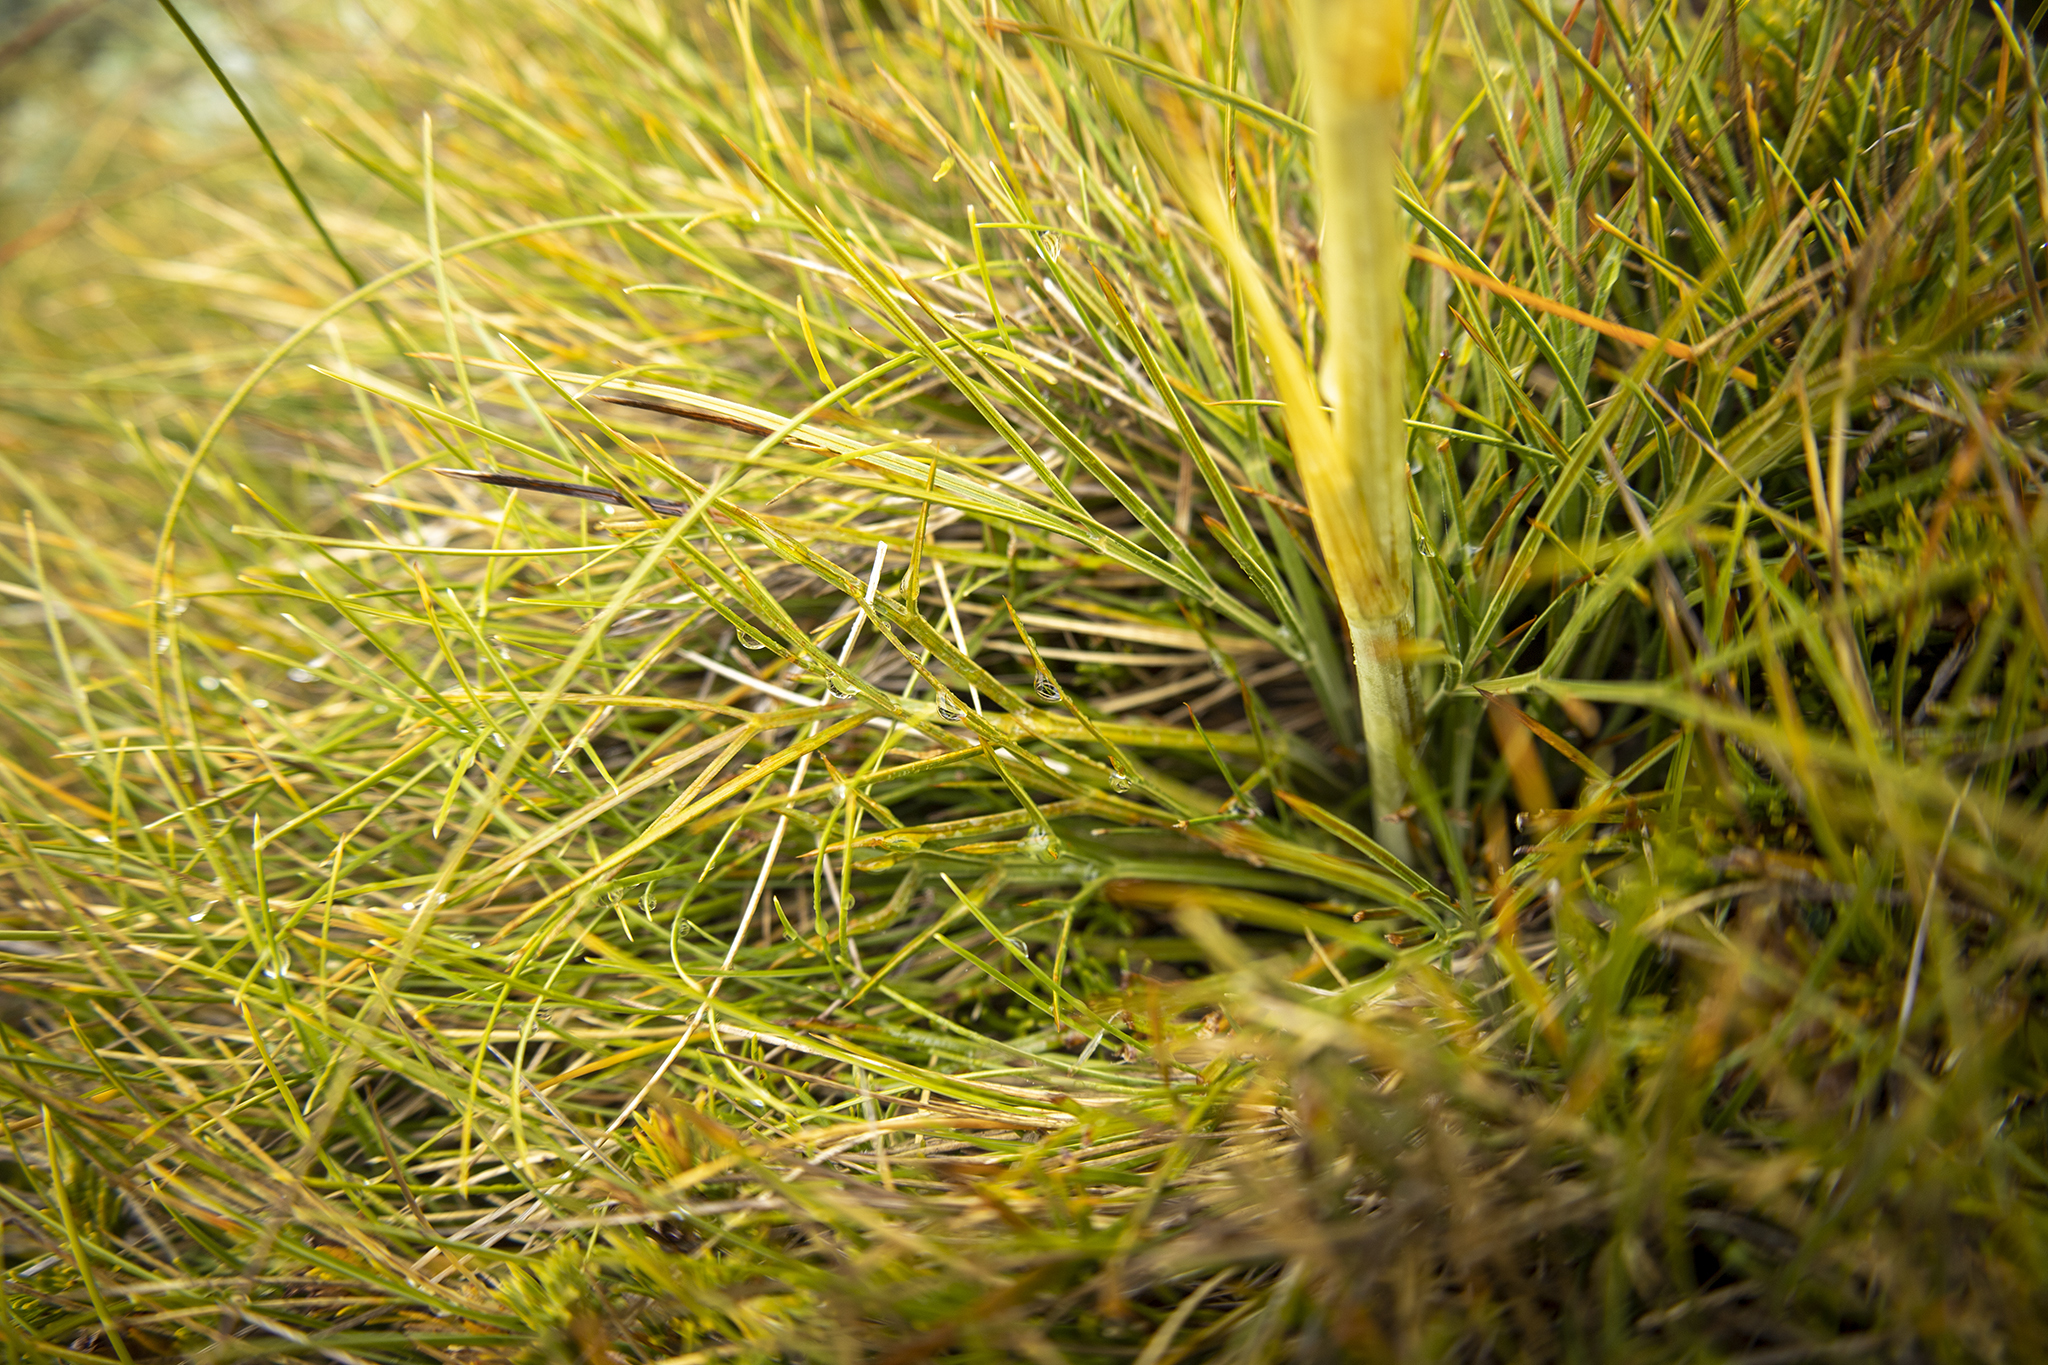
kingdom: Plantae
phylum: Tracheophyta
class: Magnoliopsida
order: Apiales
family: Apiaceae
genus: Aciphylla
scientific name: Aciphylla hookeri
